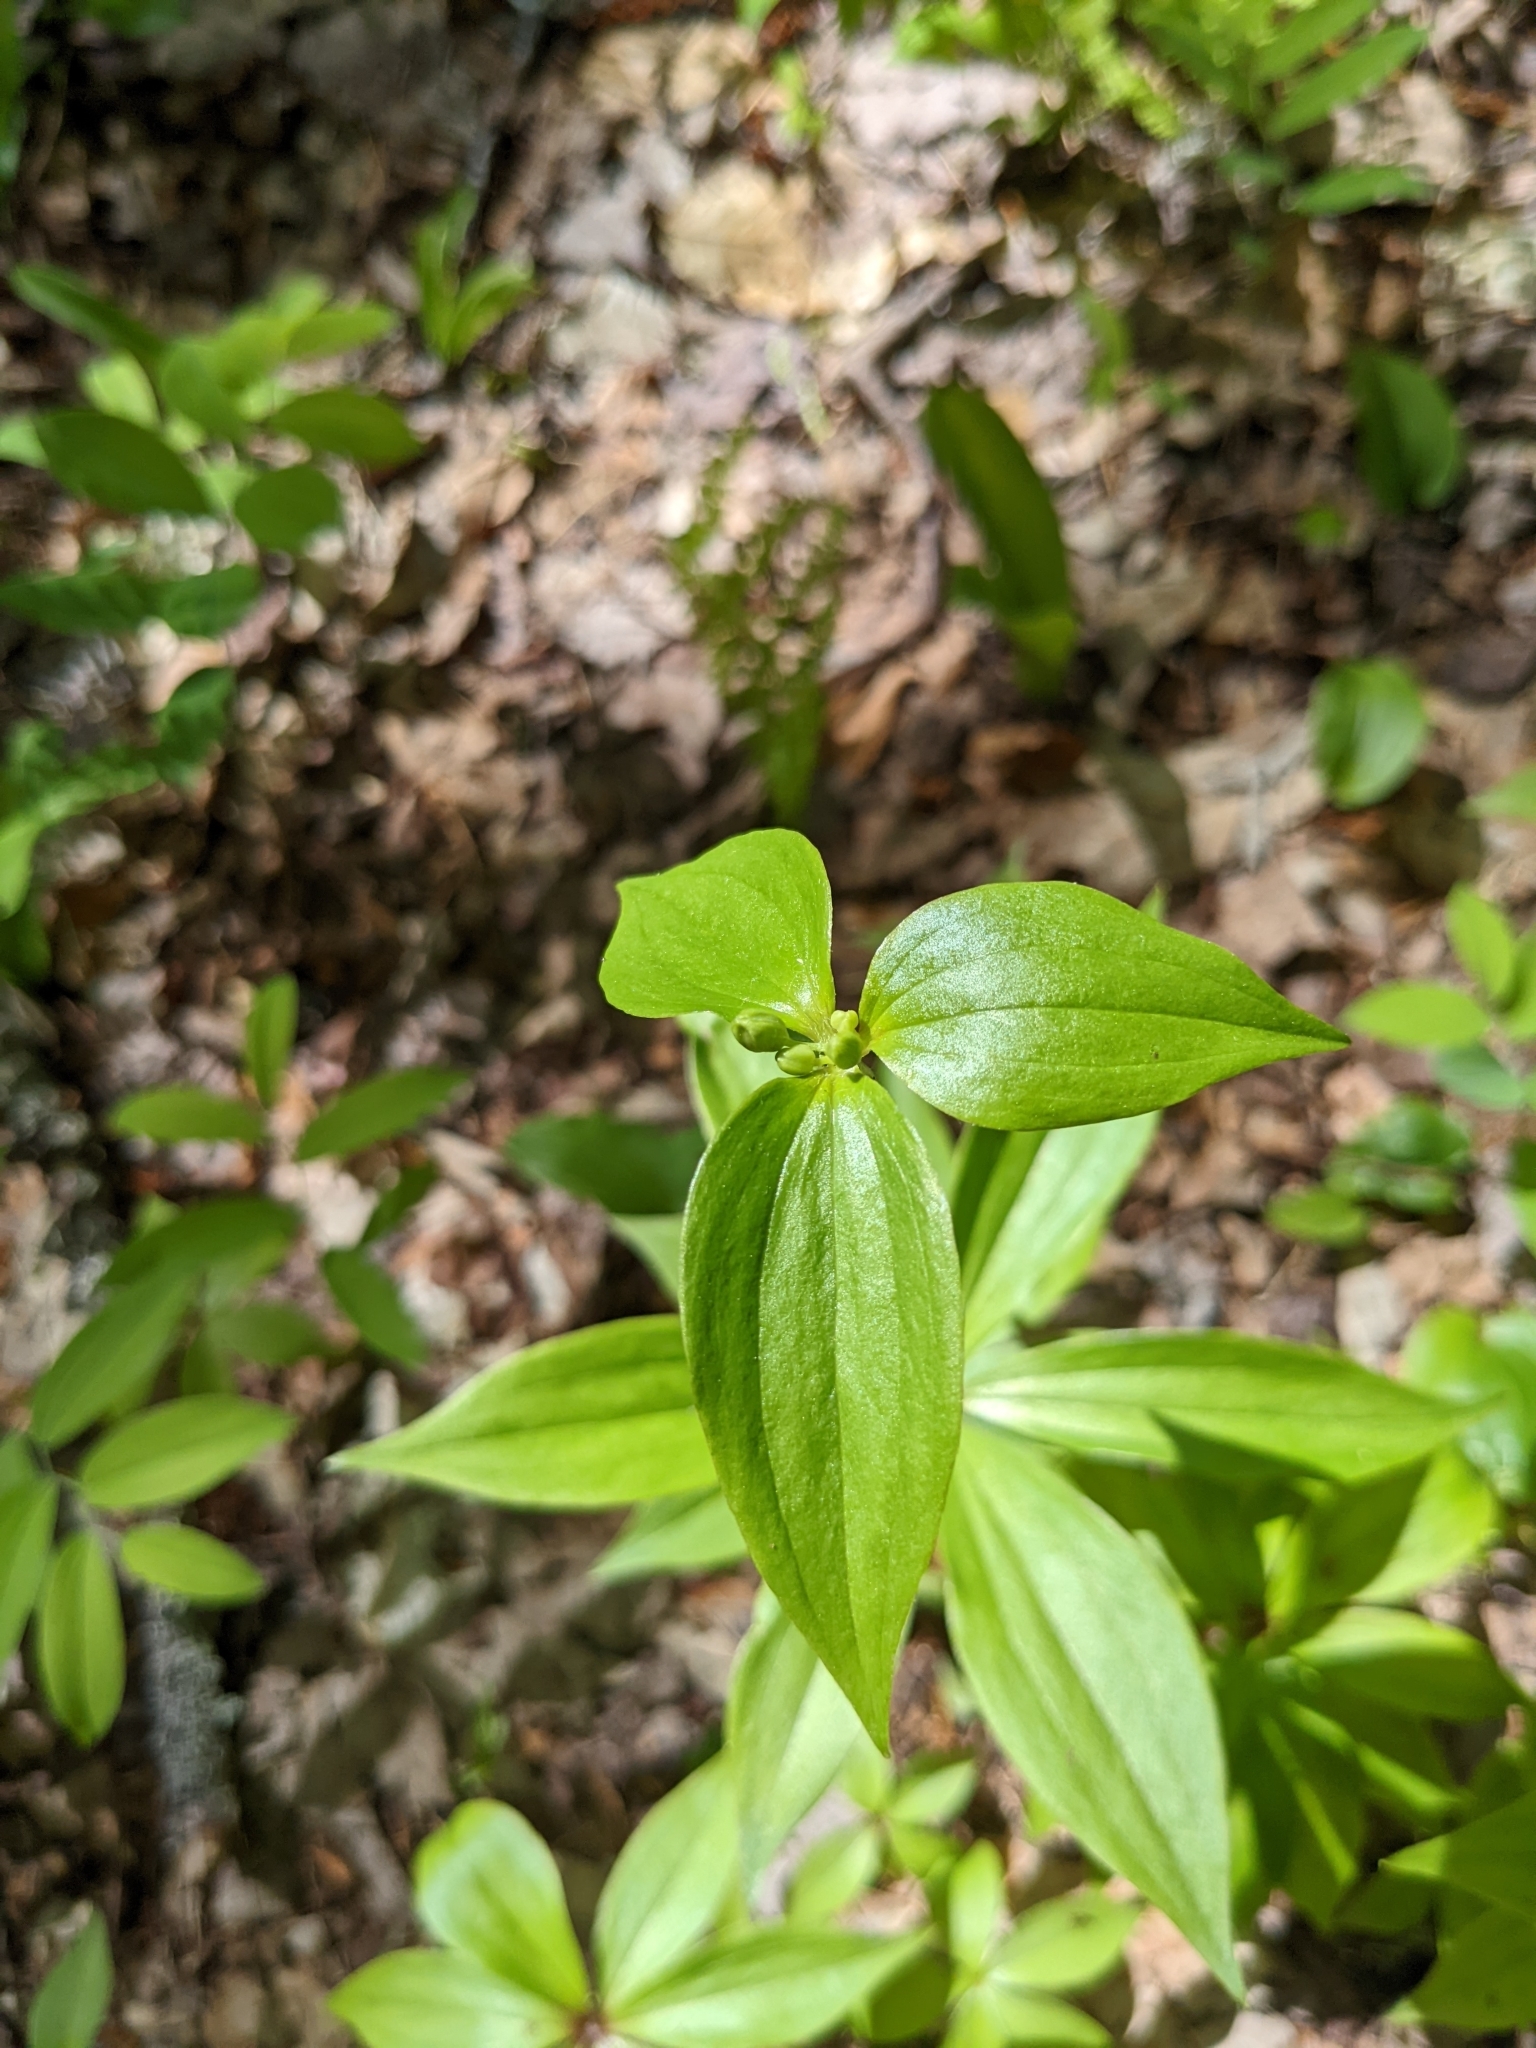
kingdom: Plantae
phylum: Tracheophyta
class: Liliopsida
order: Liliales
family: Liliaceae
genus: Medeola
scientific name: Medeola virginiana
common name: Indian cucumber-root
